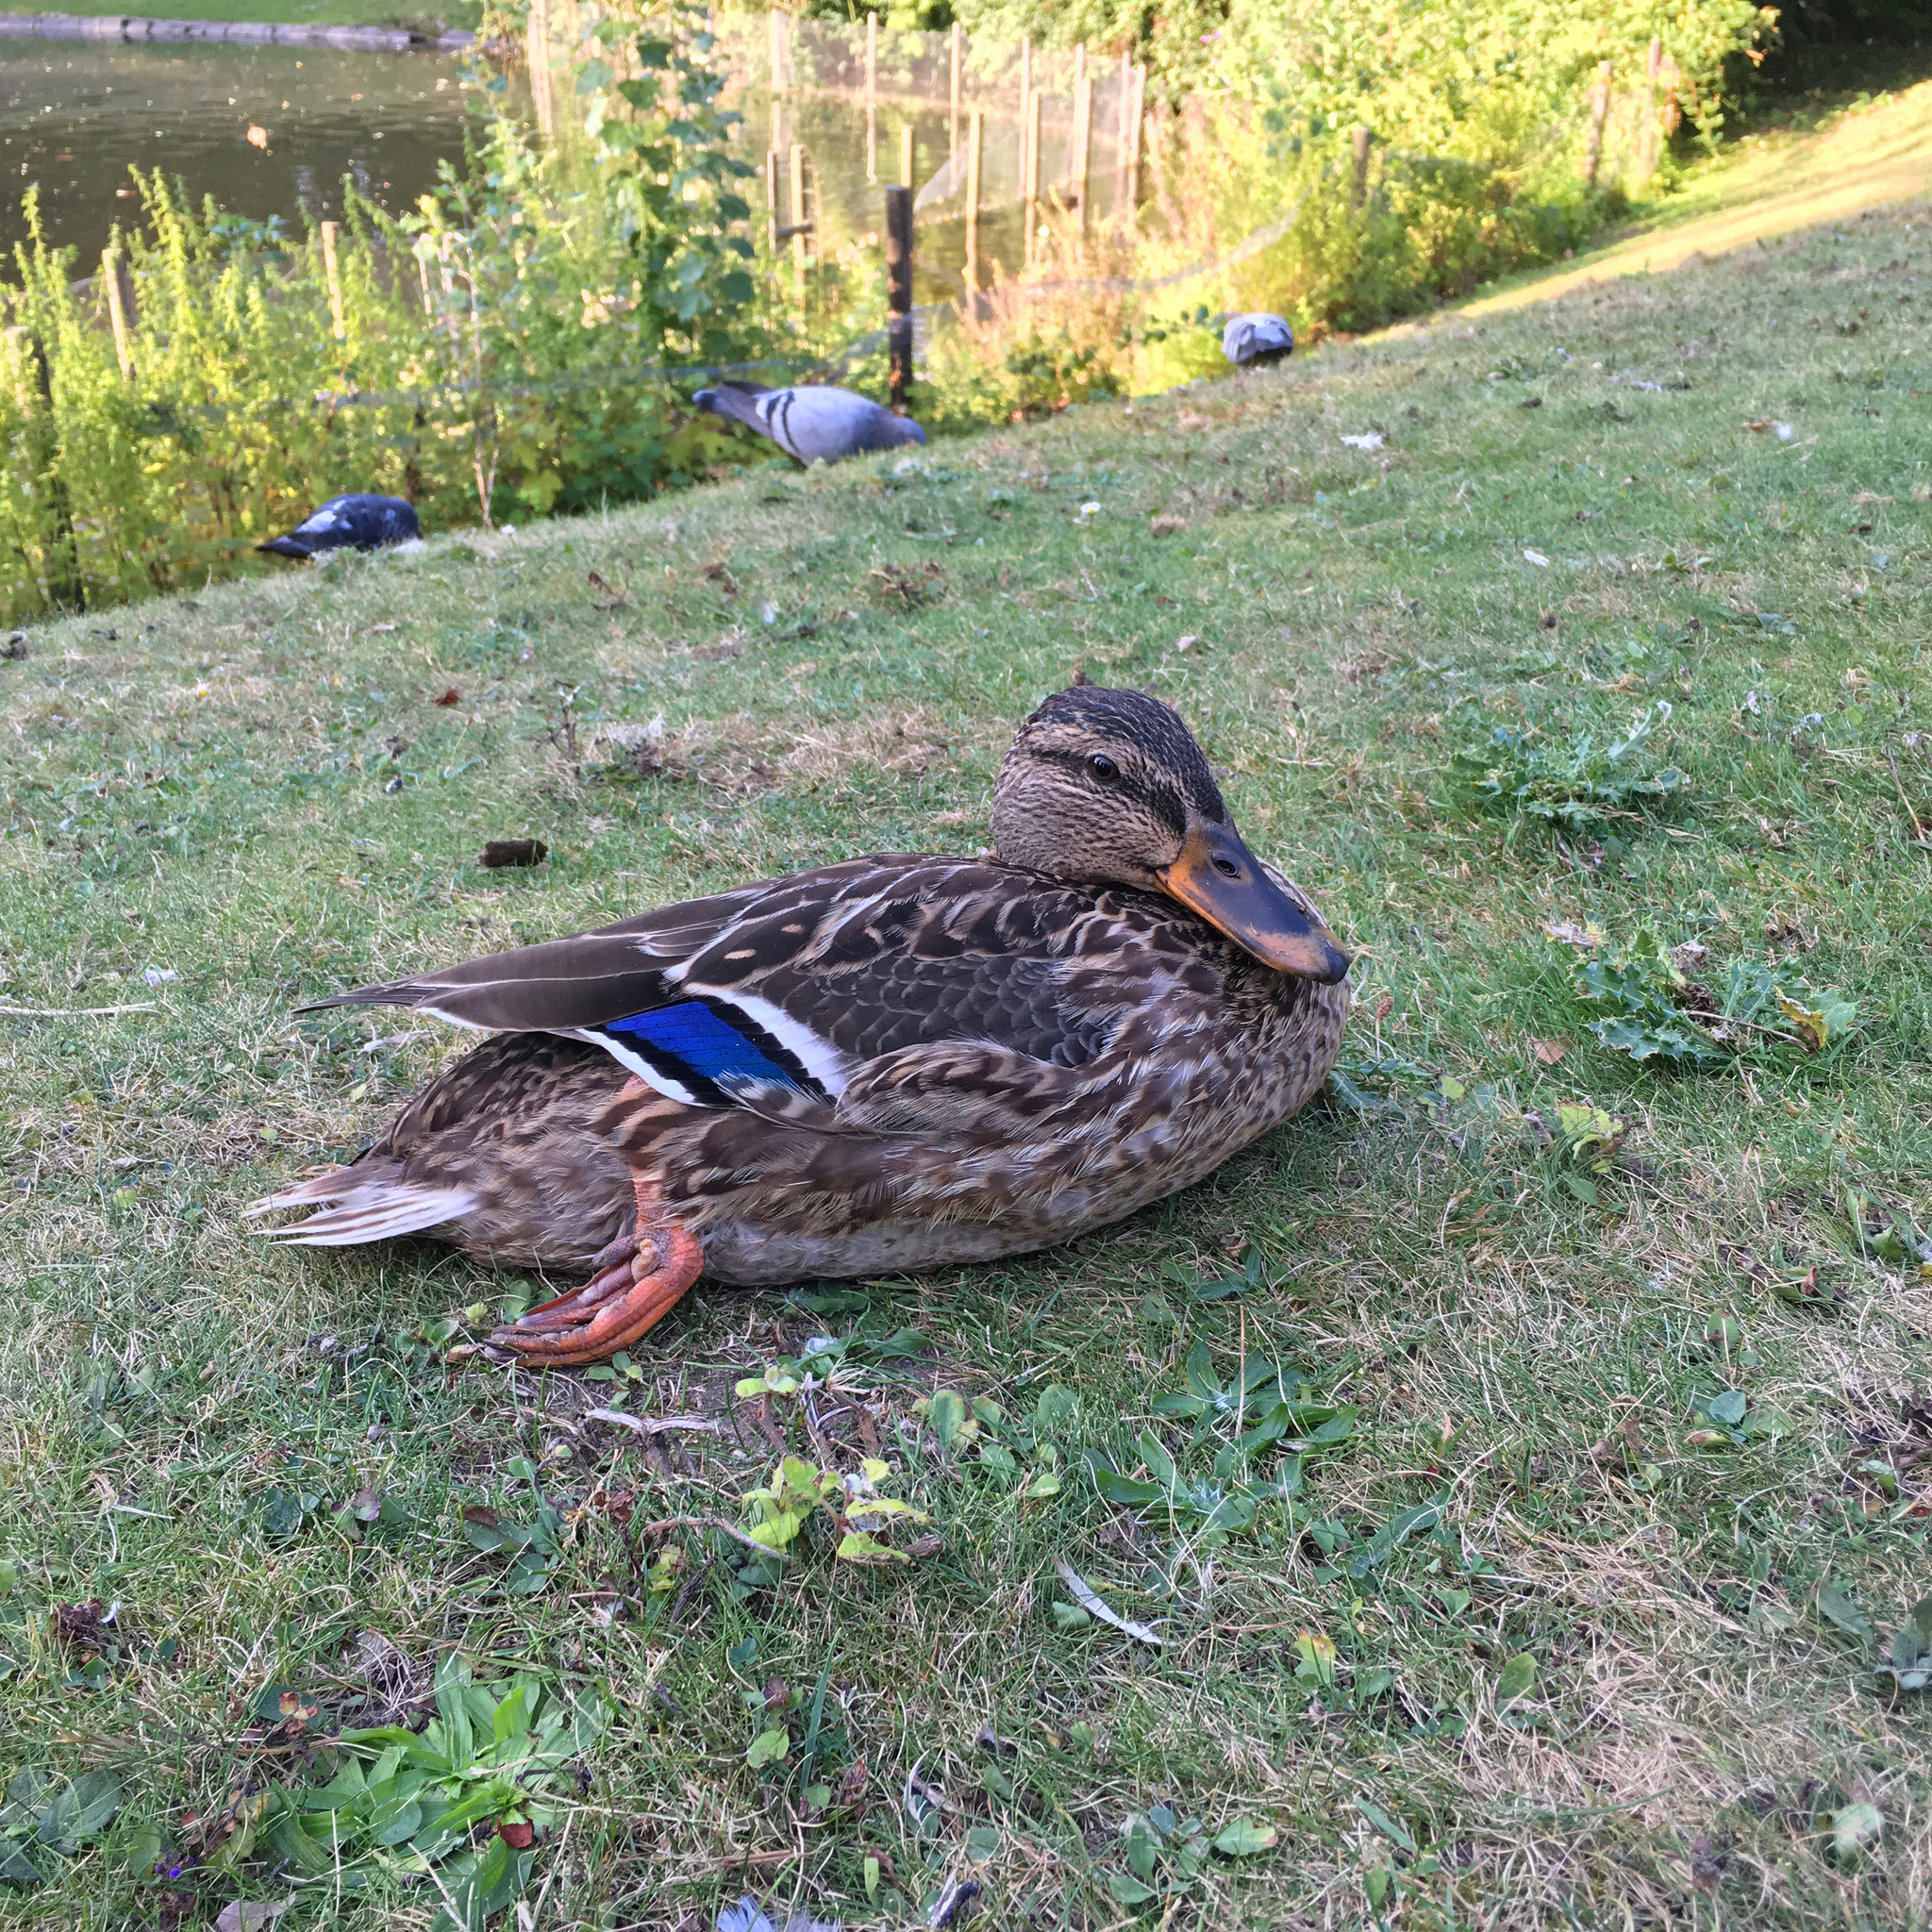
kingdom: Animalia
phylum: Chordata
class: Aves
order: Anseriformes
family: Anatidae
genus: Anas
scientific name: Anas platyrhynchos
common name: Mallard
